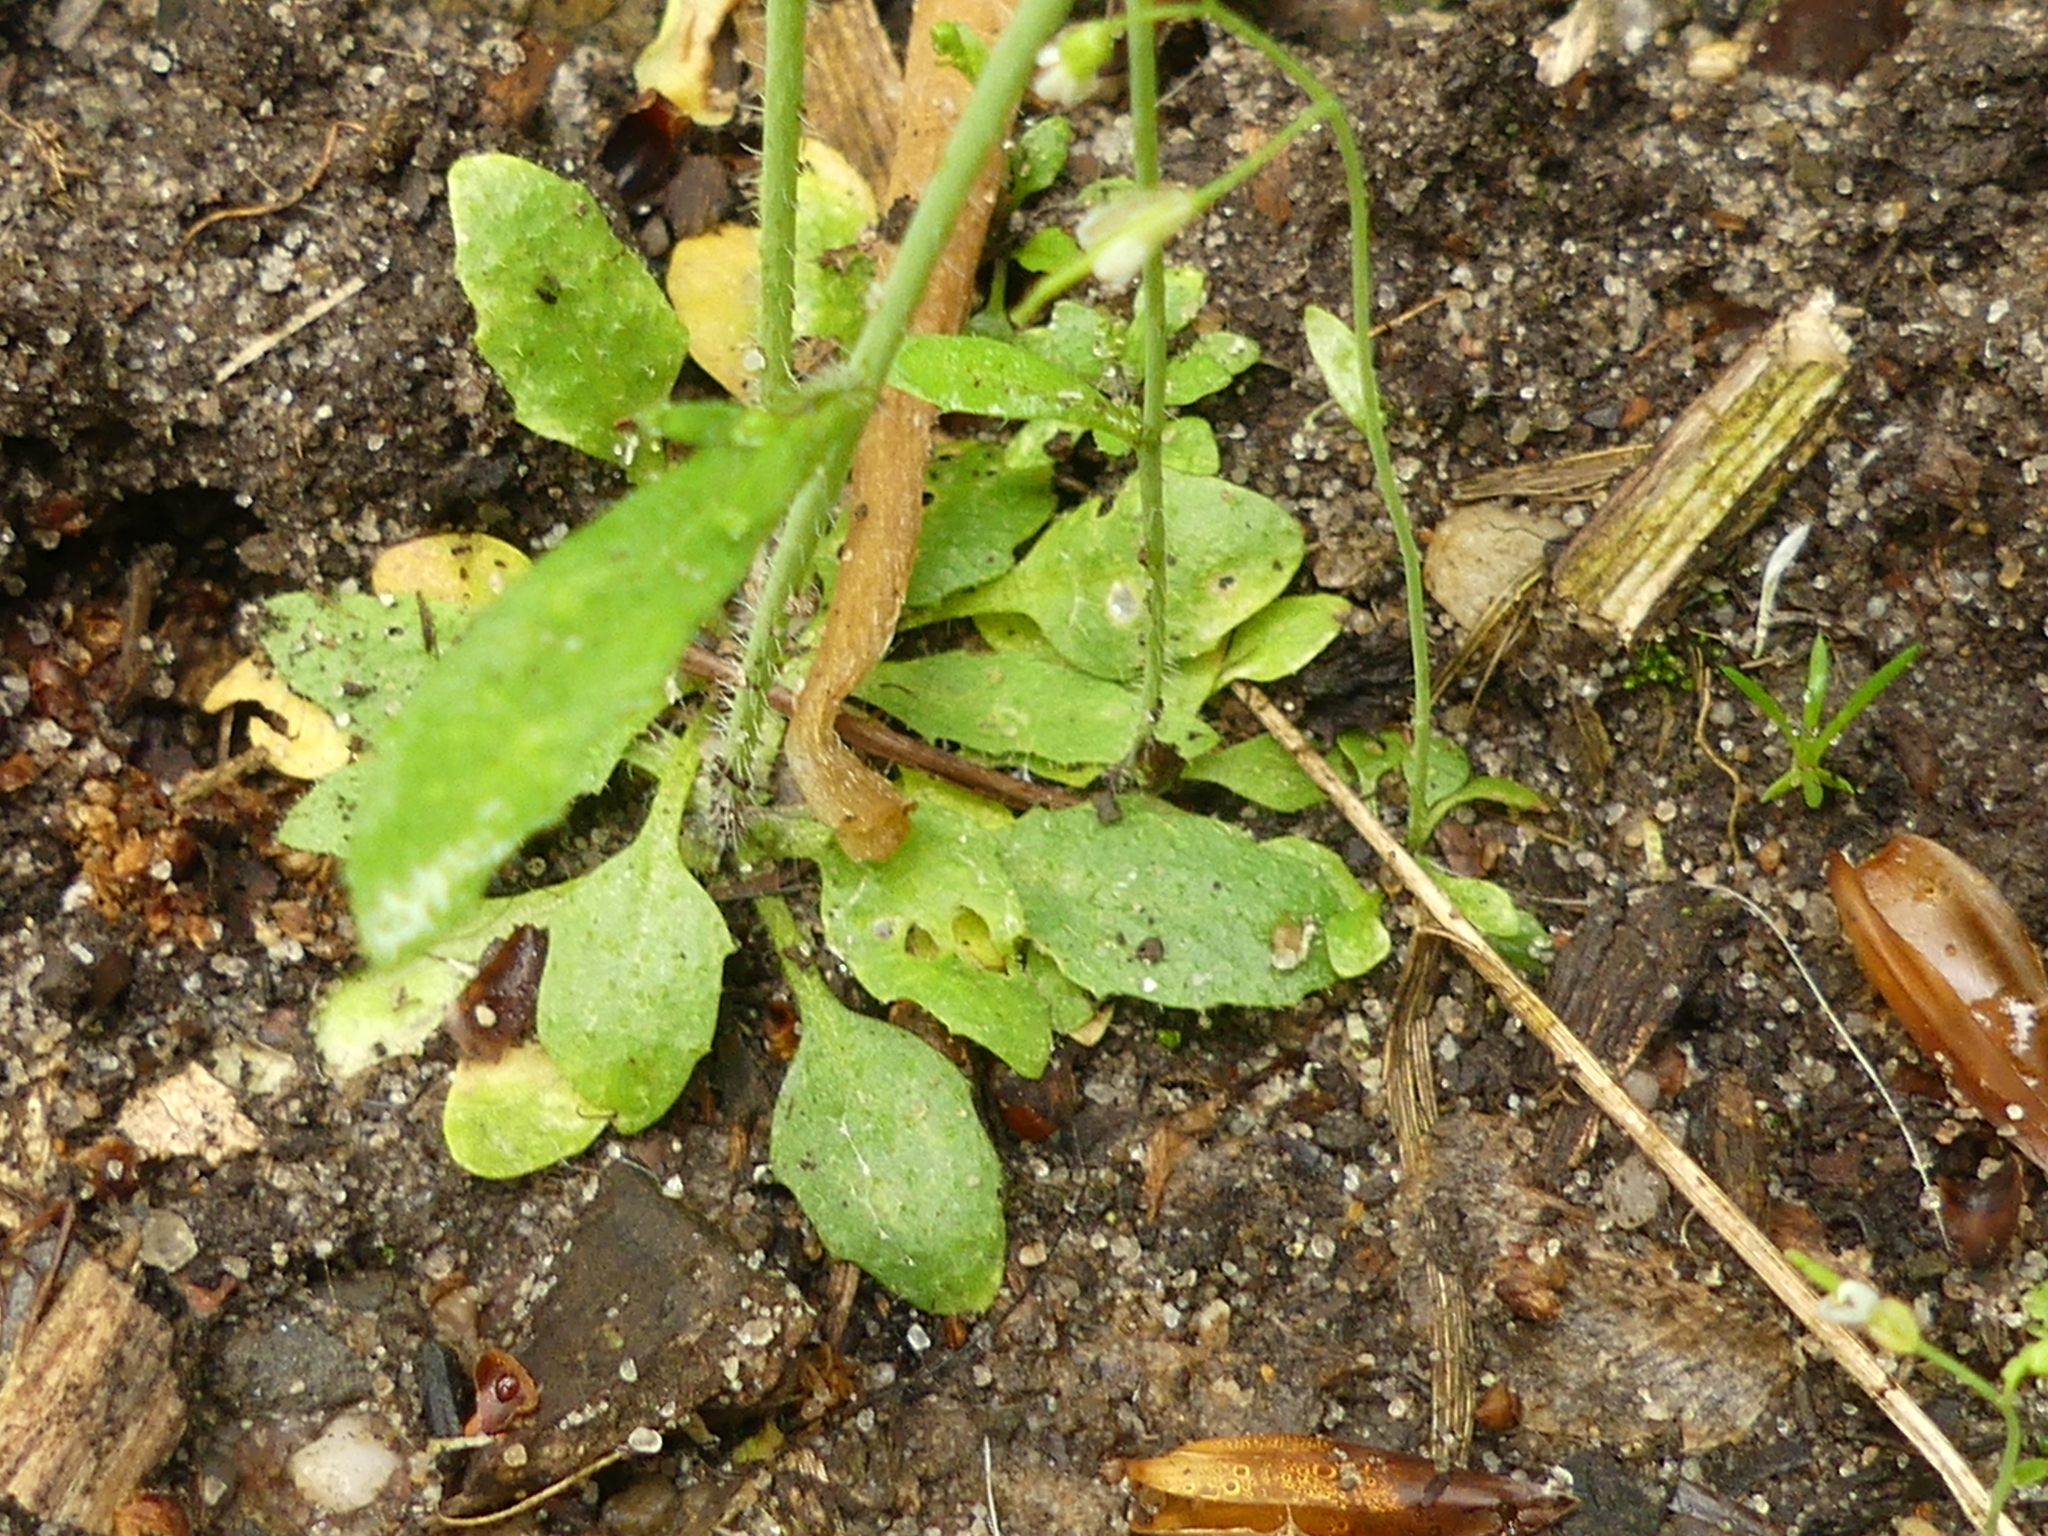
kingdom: Plantae
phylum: Tracheophyta
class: Magnoliopsida
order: Brassicales
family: Brassicaceae
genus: Arabidopsis
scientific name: Arabidopsis thaliana
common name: Thale cress
